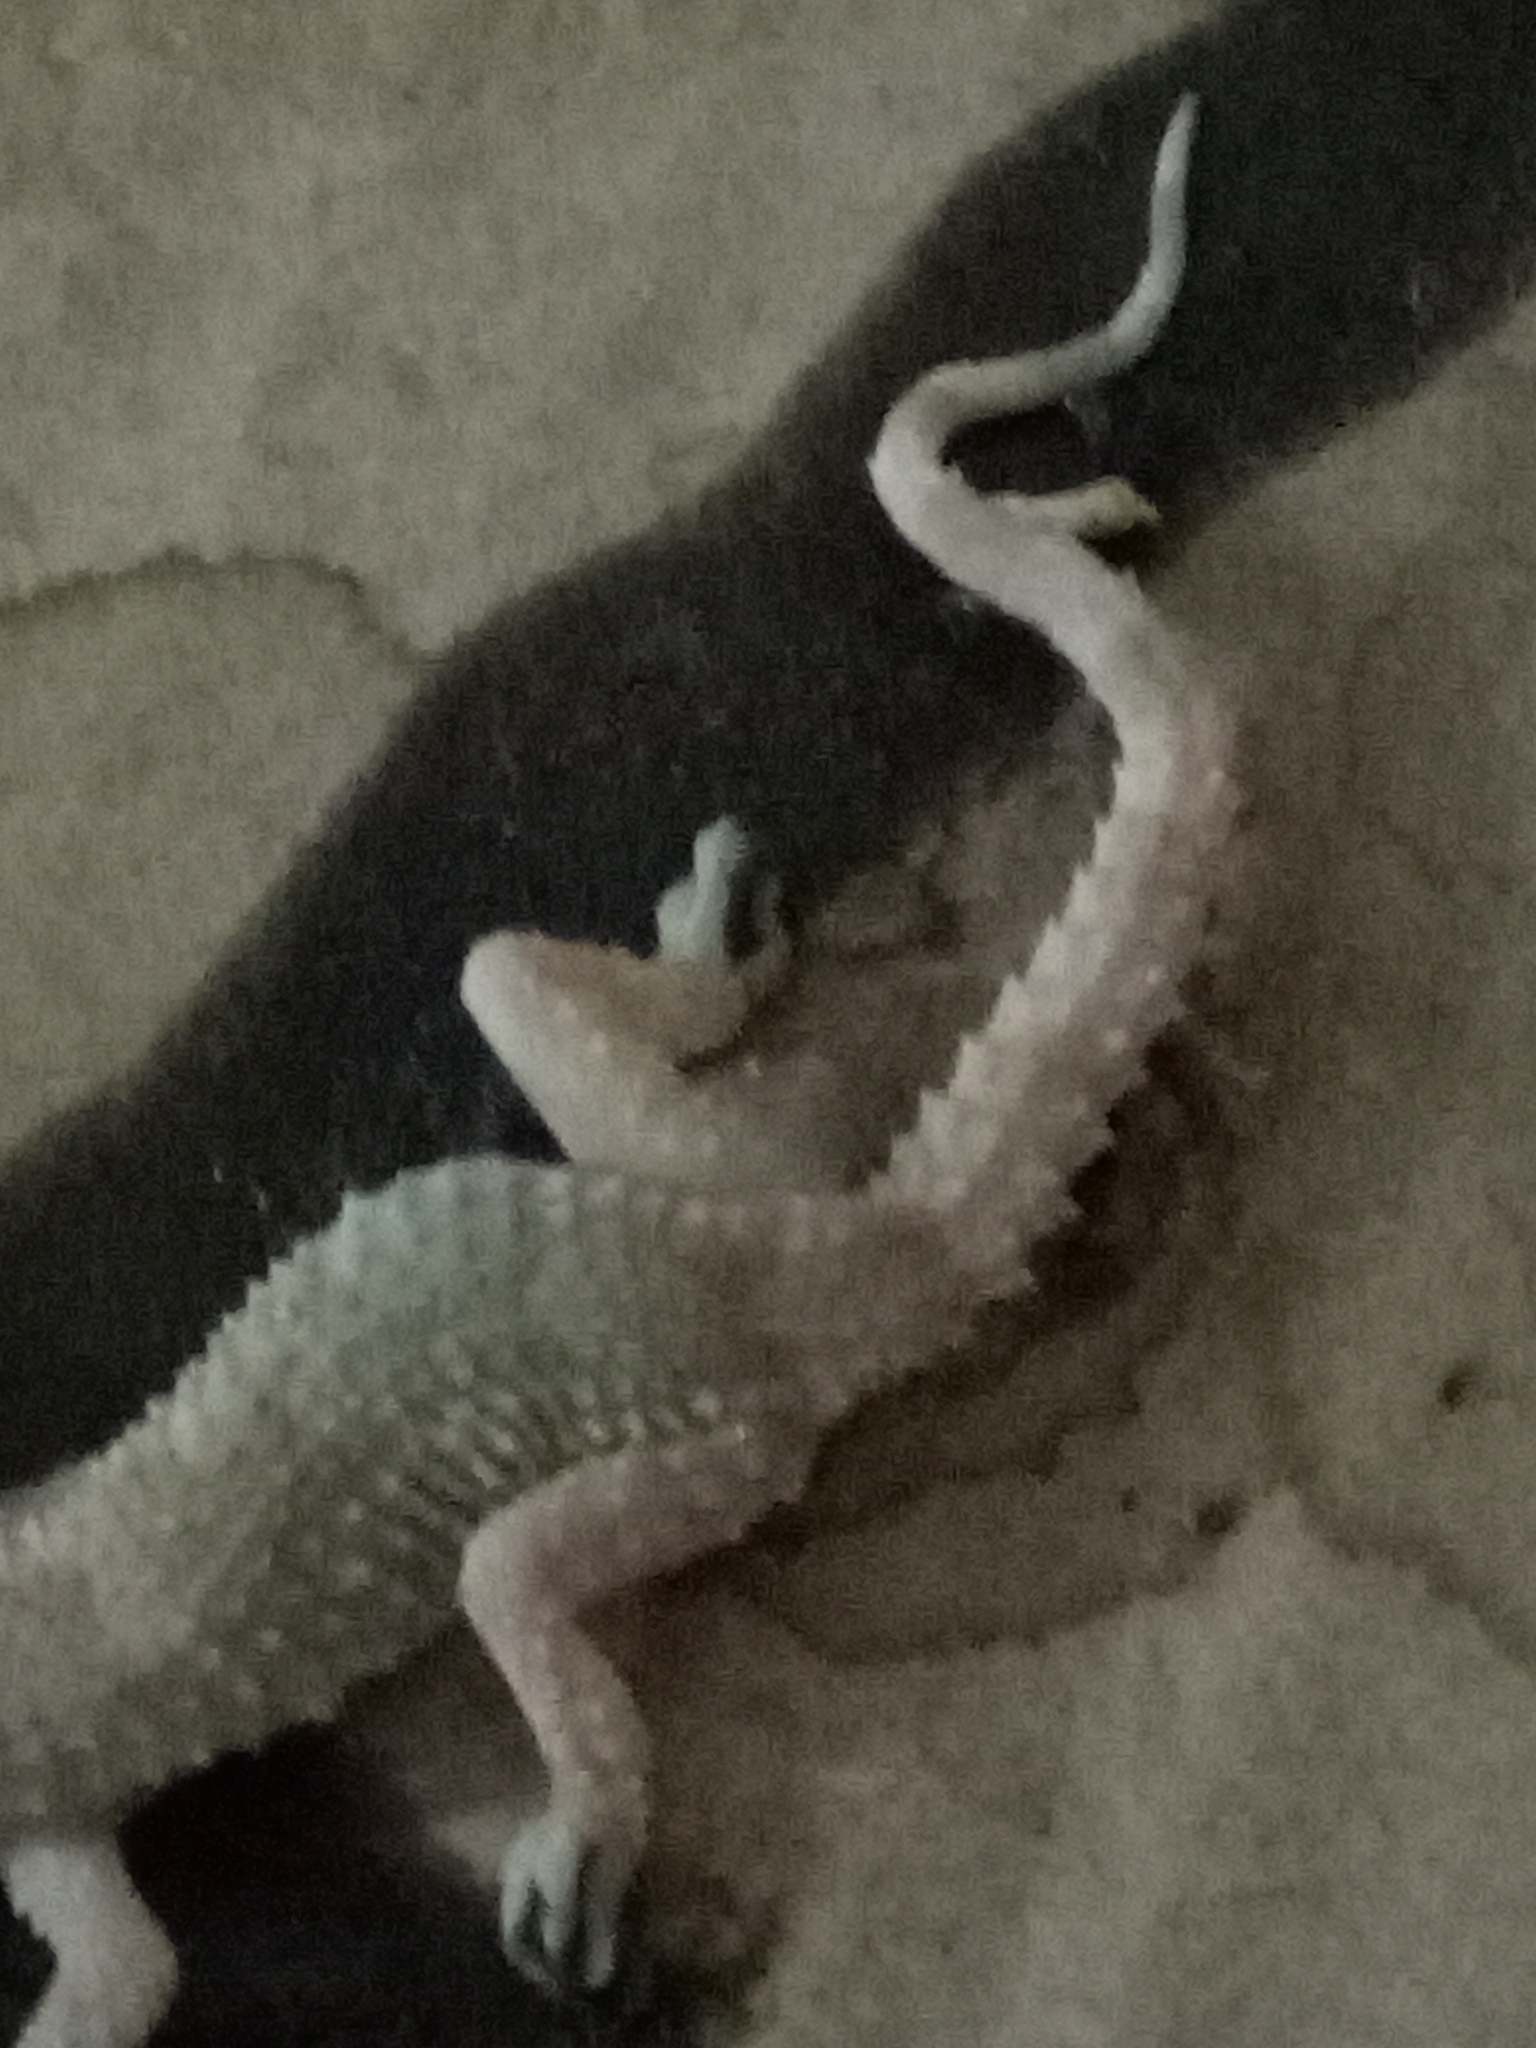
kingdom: Animalia
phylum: Chordata
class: Squamata
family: Phyllodactylidae
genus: Tarentola
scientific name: Tarentola mauritanica
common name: Moorish gecko
